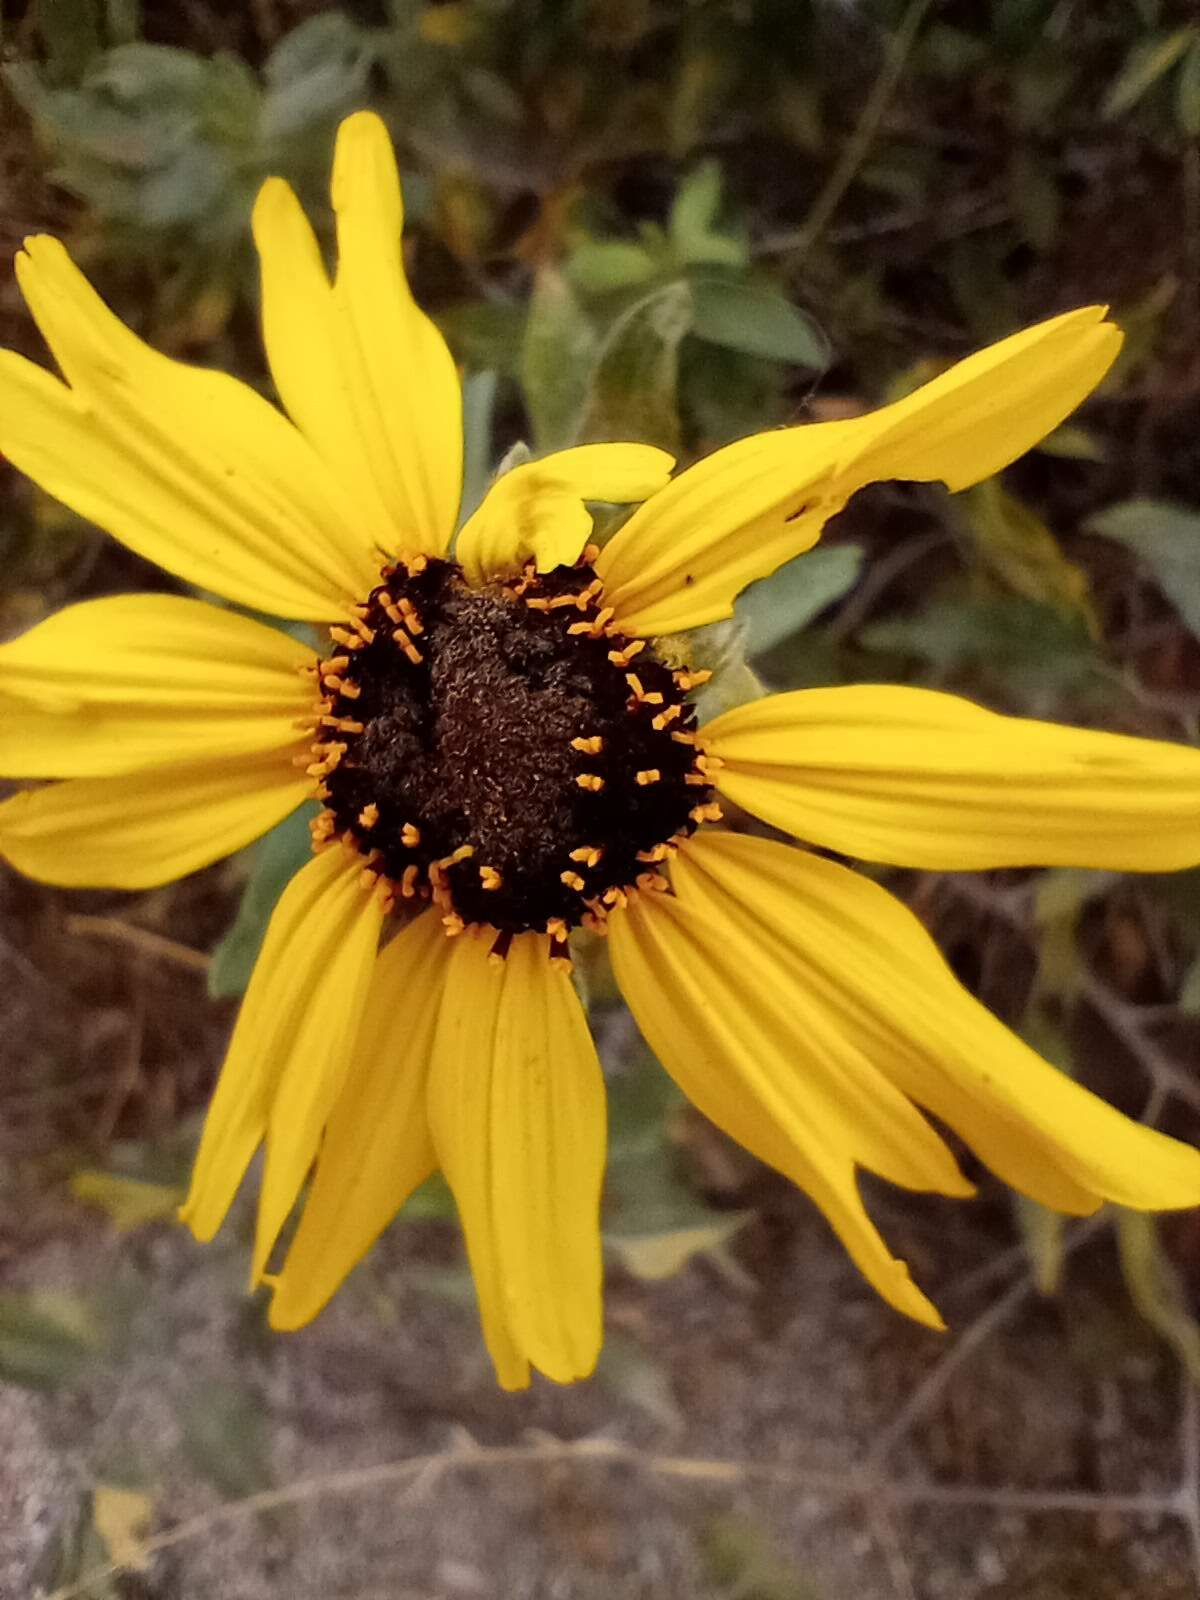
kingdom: Plantae
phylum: Tracheophyta
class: Magnoliopsida
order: Asterales
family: Asteraceae
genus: Encelia
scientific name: Encelia californica
